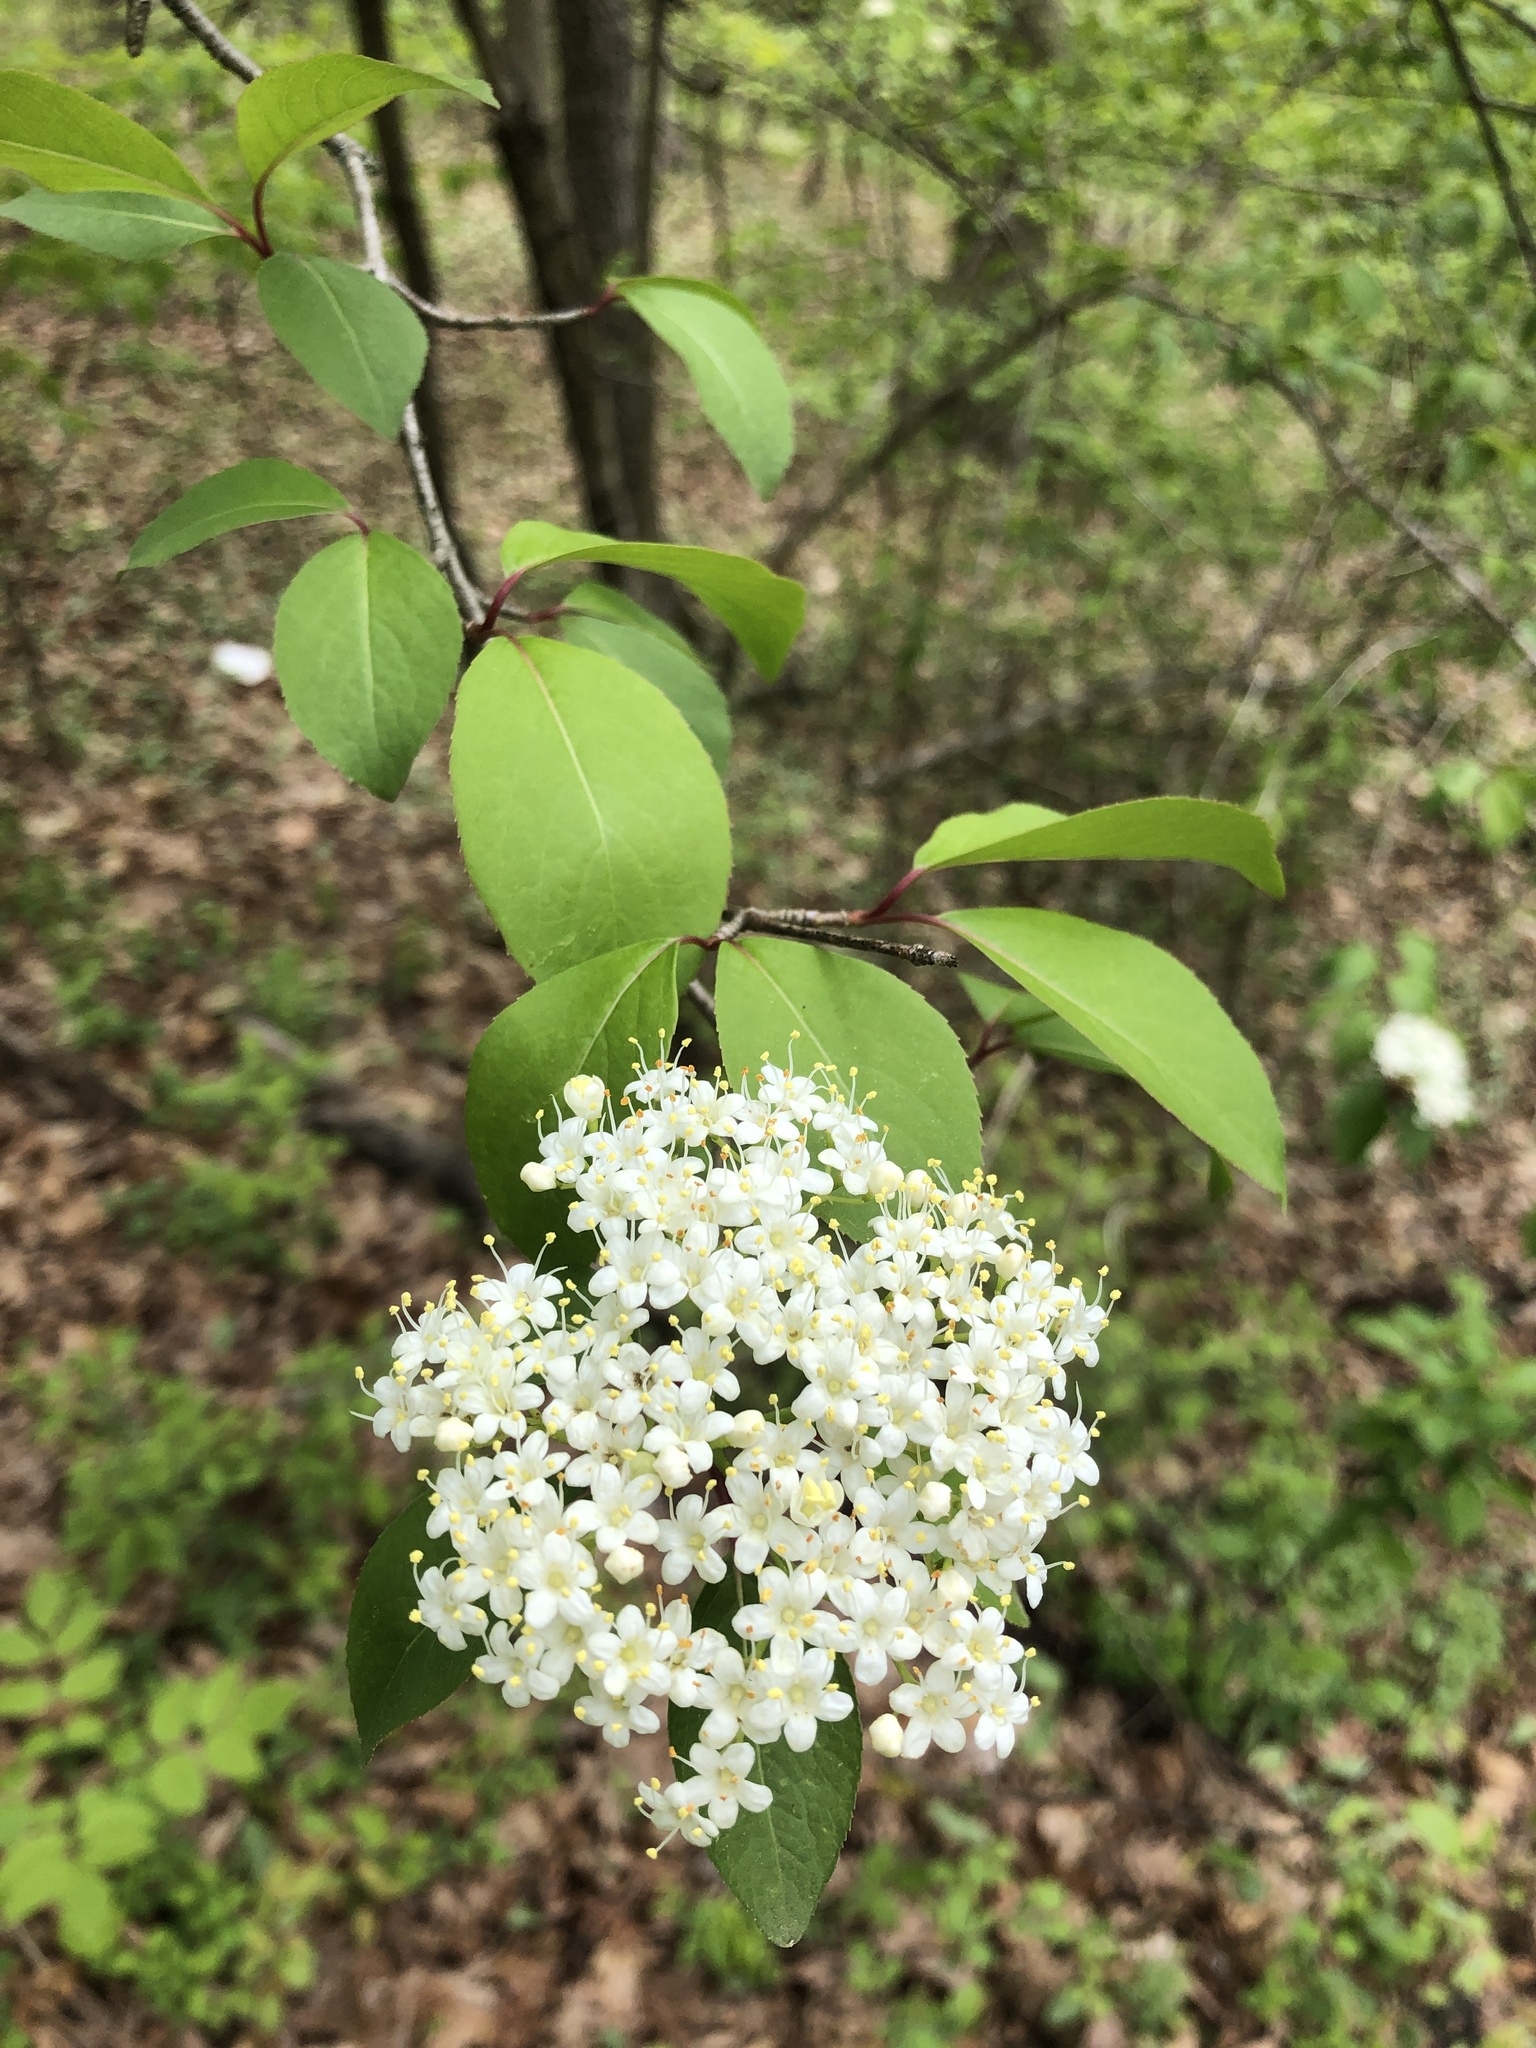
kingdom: Plantae
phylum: Tracheophyta
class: Magnoliopsida
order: Dipsacales
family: Viburnaceae
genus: Viburnum
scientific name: Viburnum prunifolium
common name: Black haw
